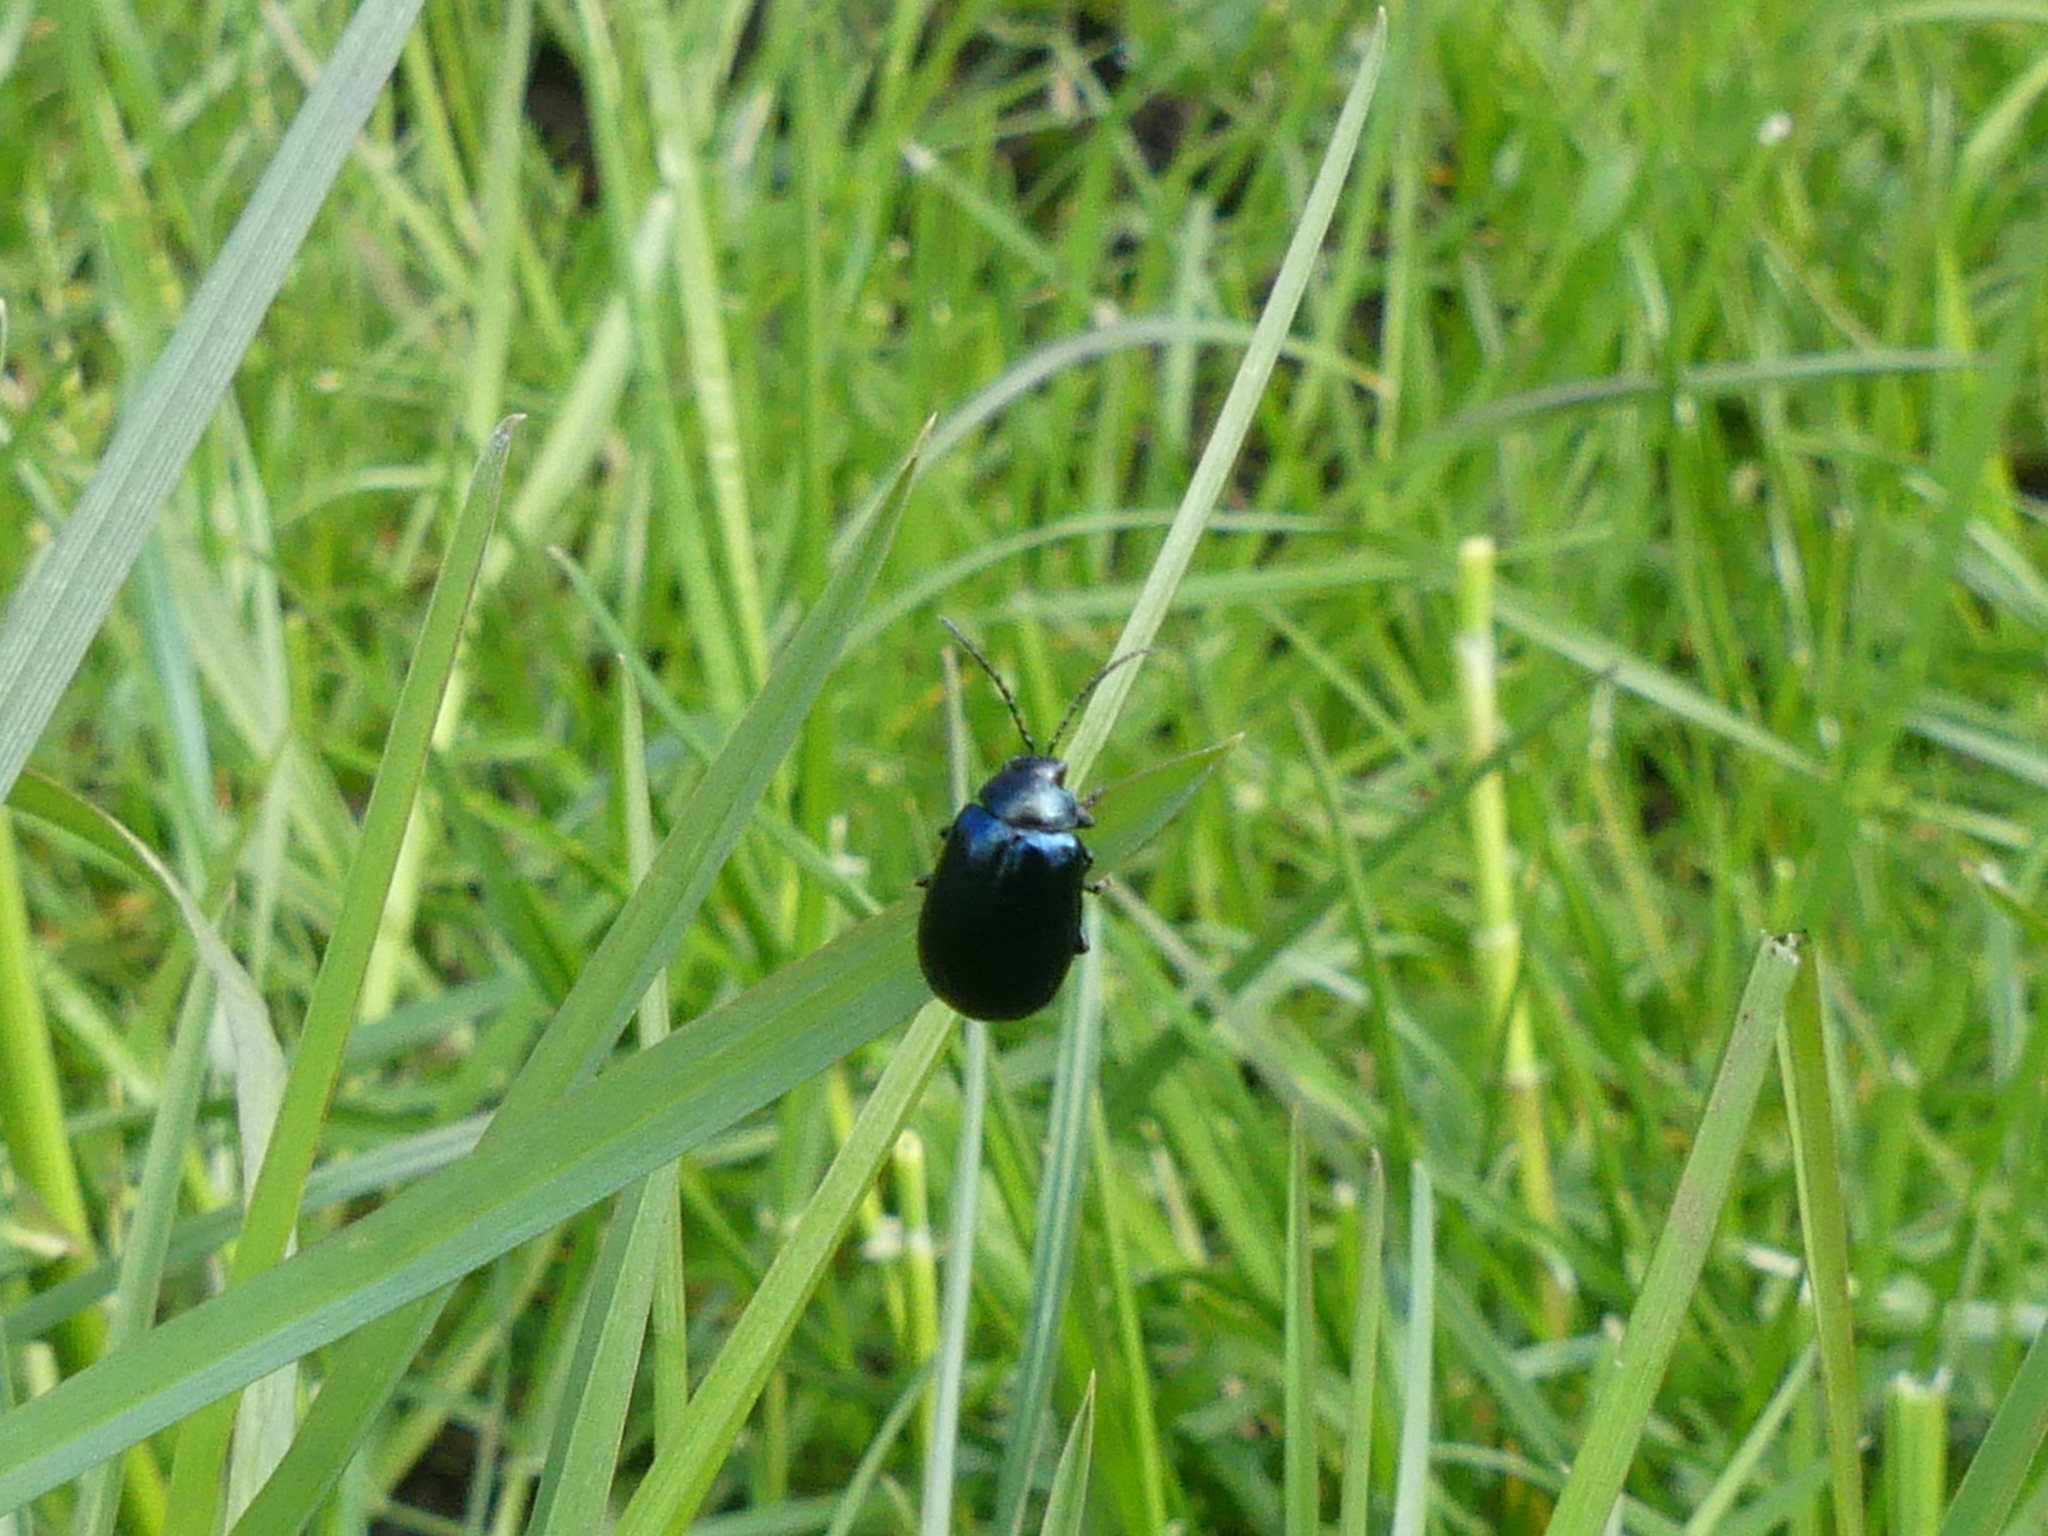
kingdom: Animalia
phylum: Arthropoda
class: Insecta
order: Coleoptera
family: Chrysomelidae
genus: Agelastica
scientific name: Agelastica alni
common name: Alder leaf beetle
